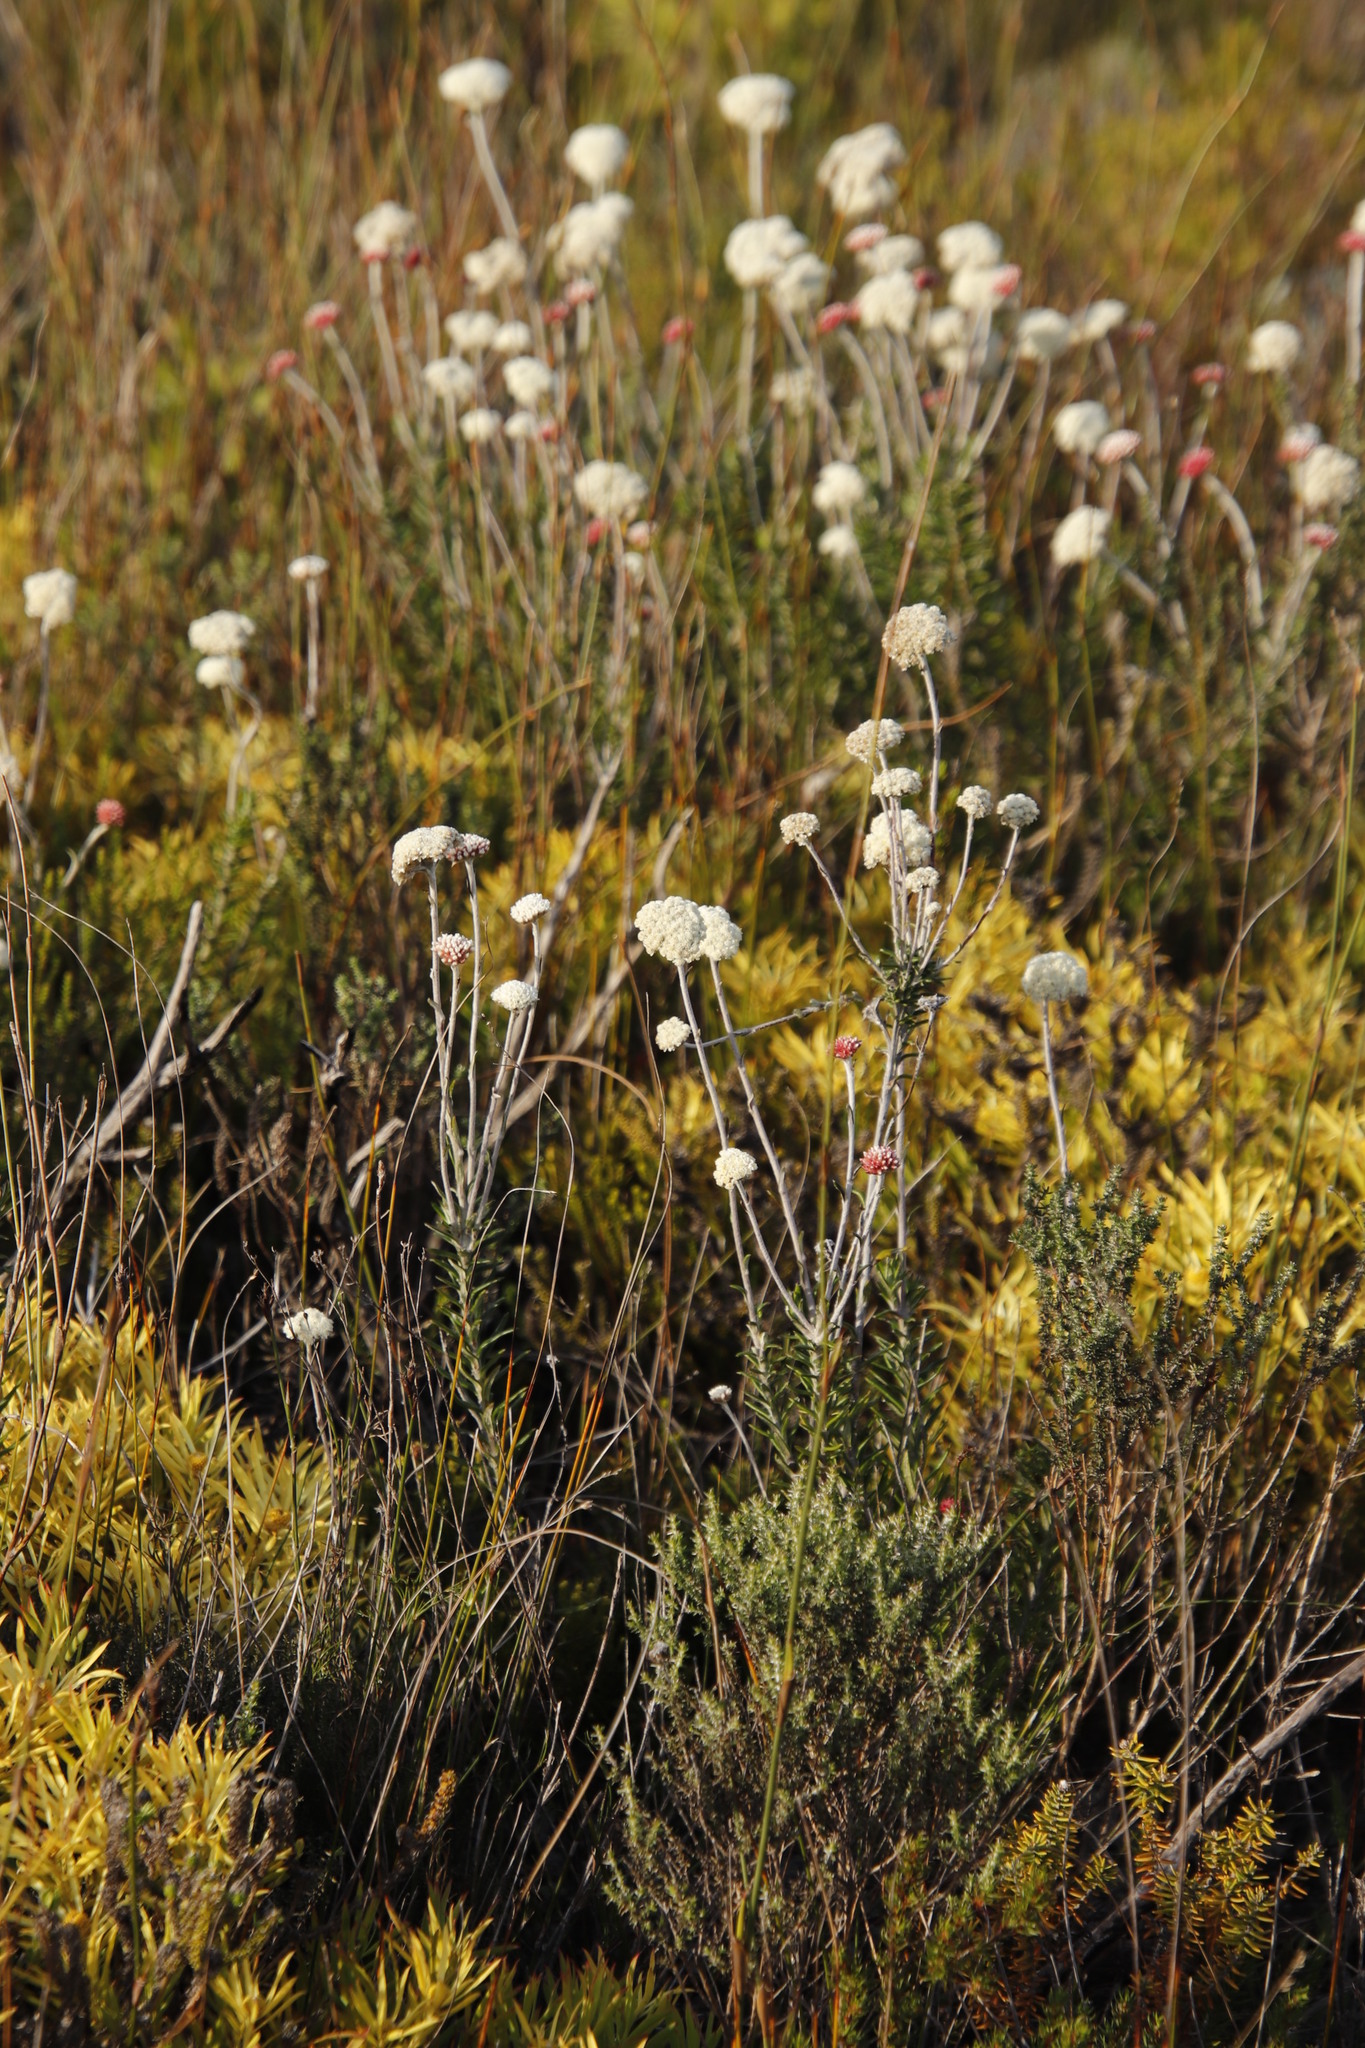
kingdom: Plantae
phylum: Tracheophyta
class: Magnoliopsida
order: Asterales
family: Asteraceae
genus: Anaxeton
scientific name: Anaxeton laeve
